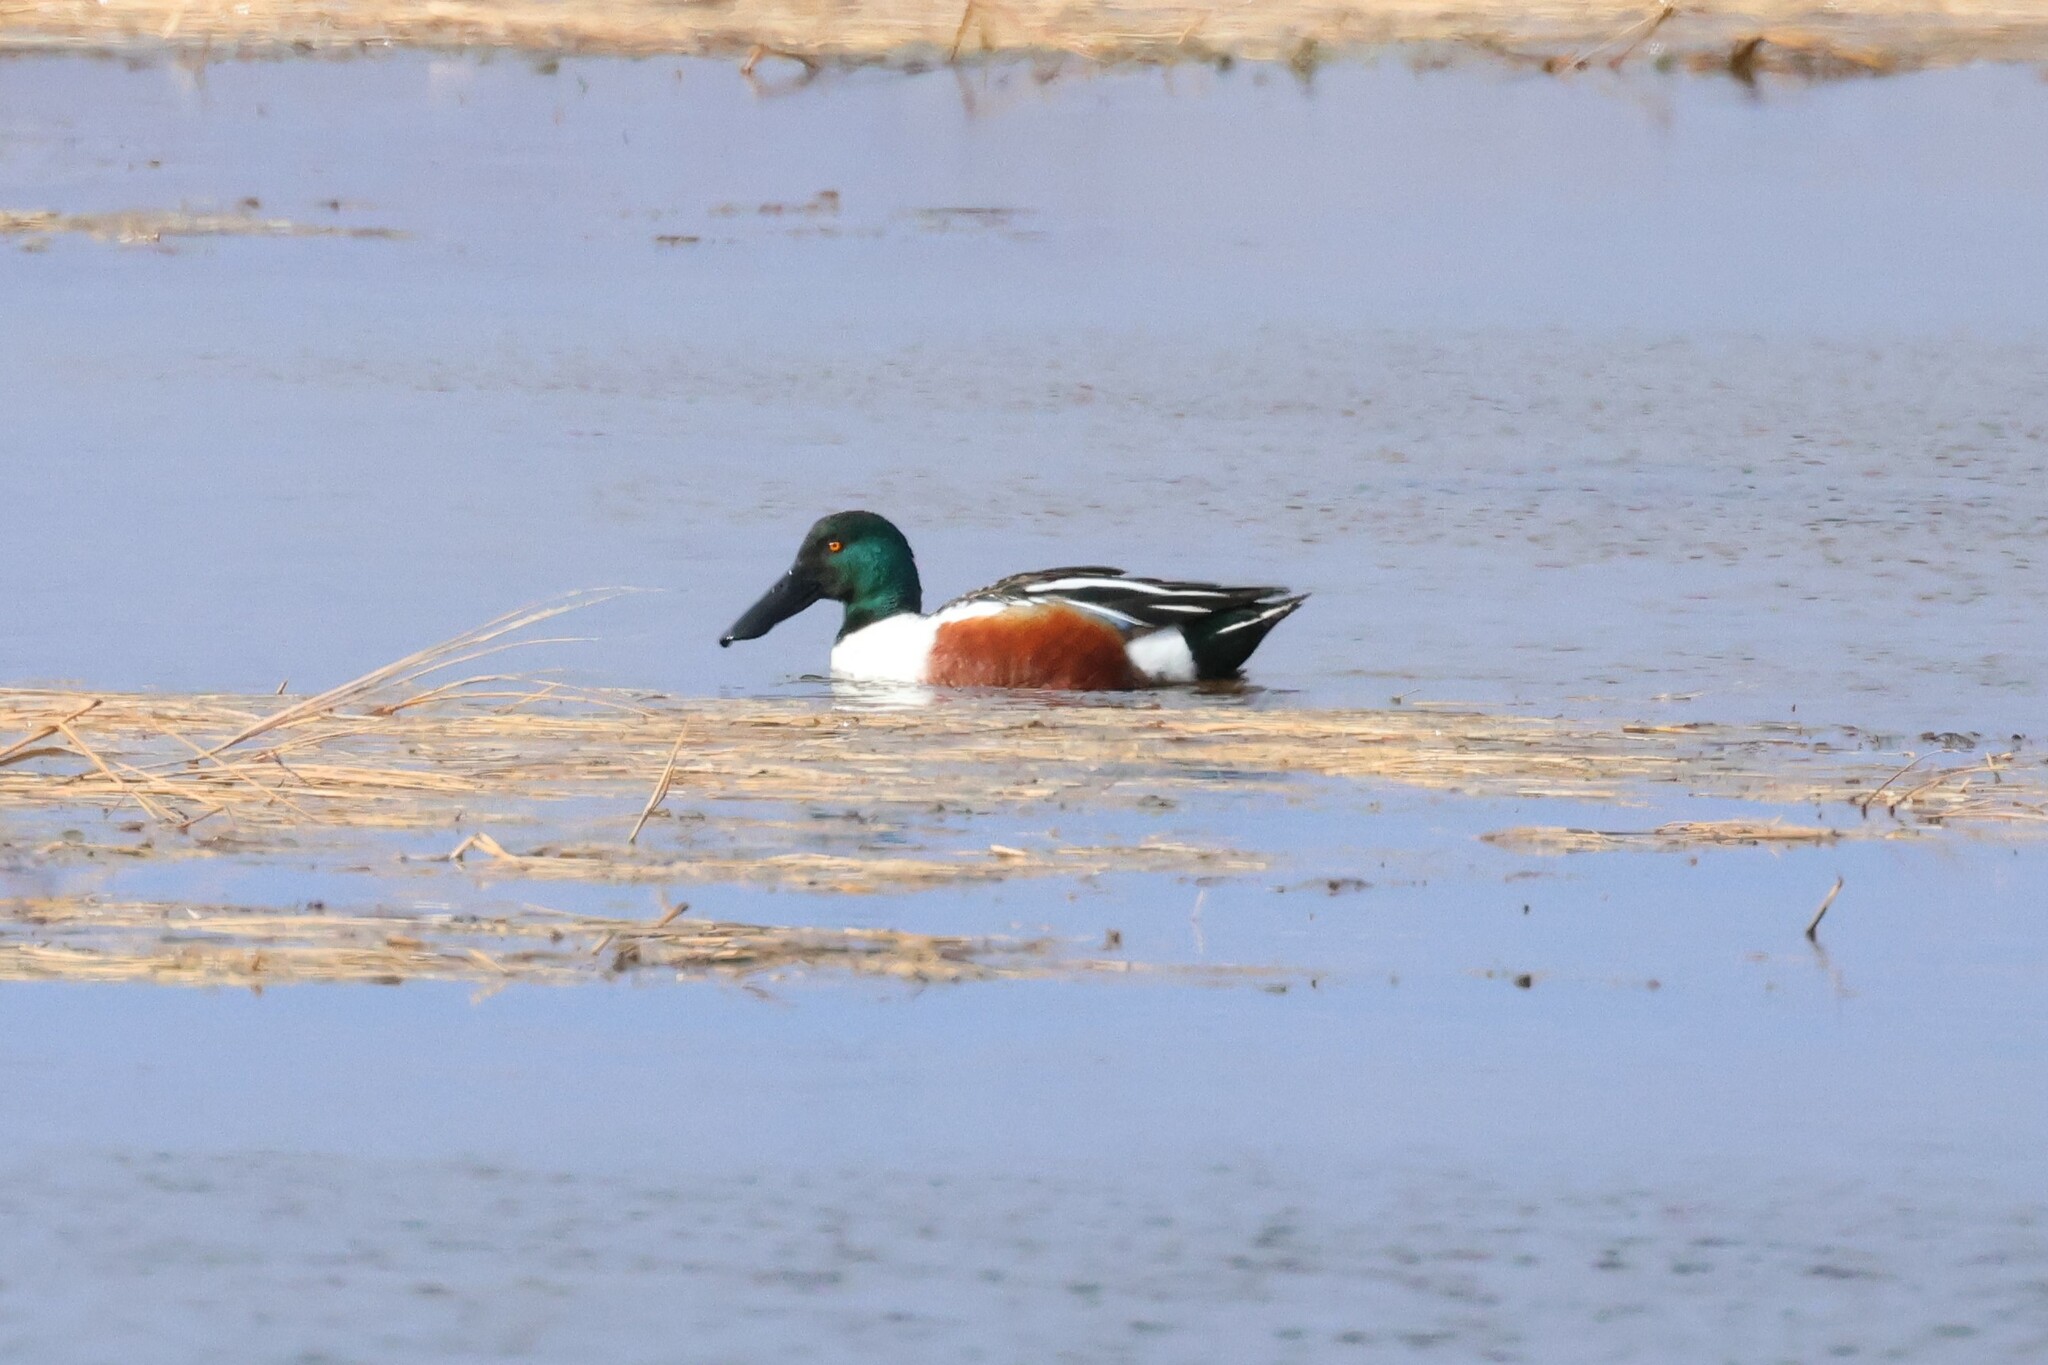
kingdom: Animalia
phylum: Chordata
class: Aves
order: Anseriformes
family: Anatidae
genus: Spatula
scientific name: Spatula clypeata
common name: Northern shoveler
